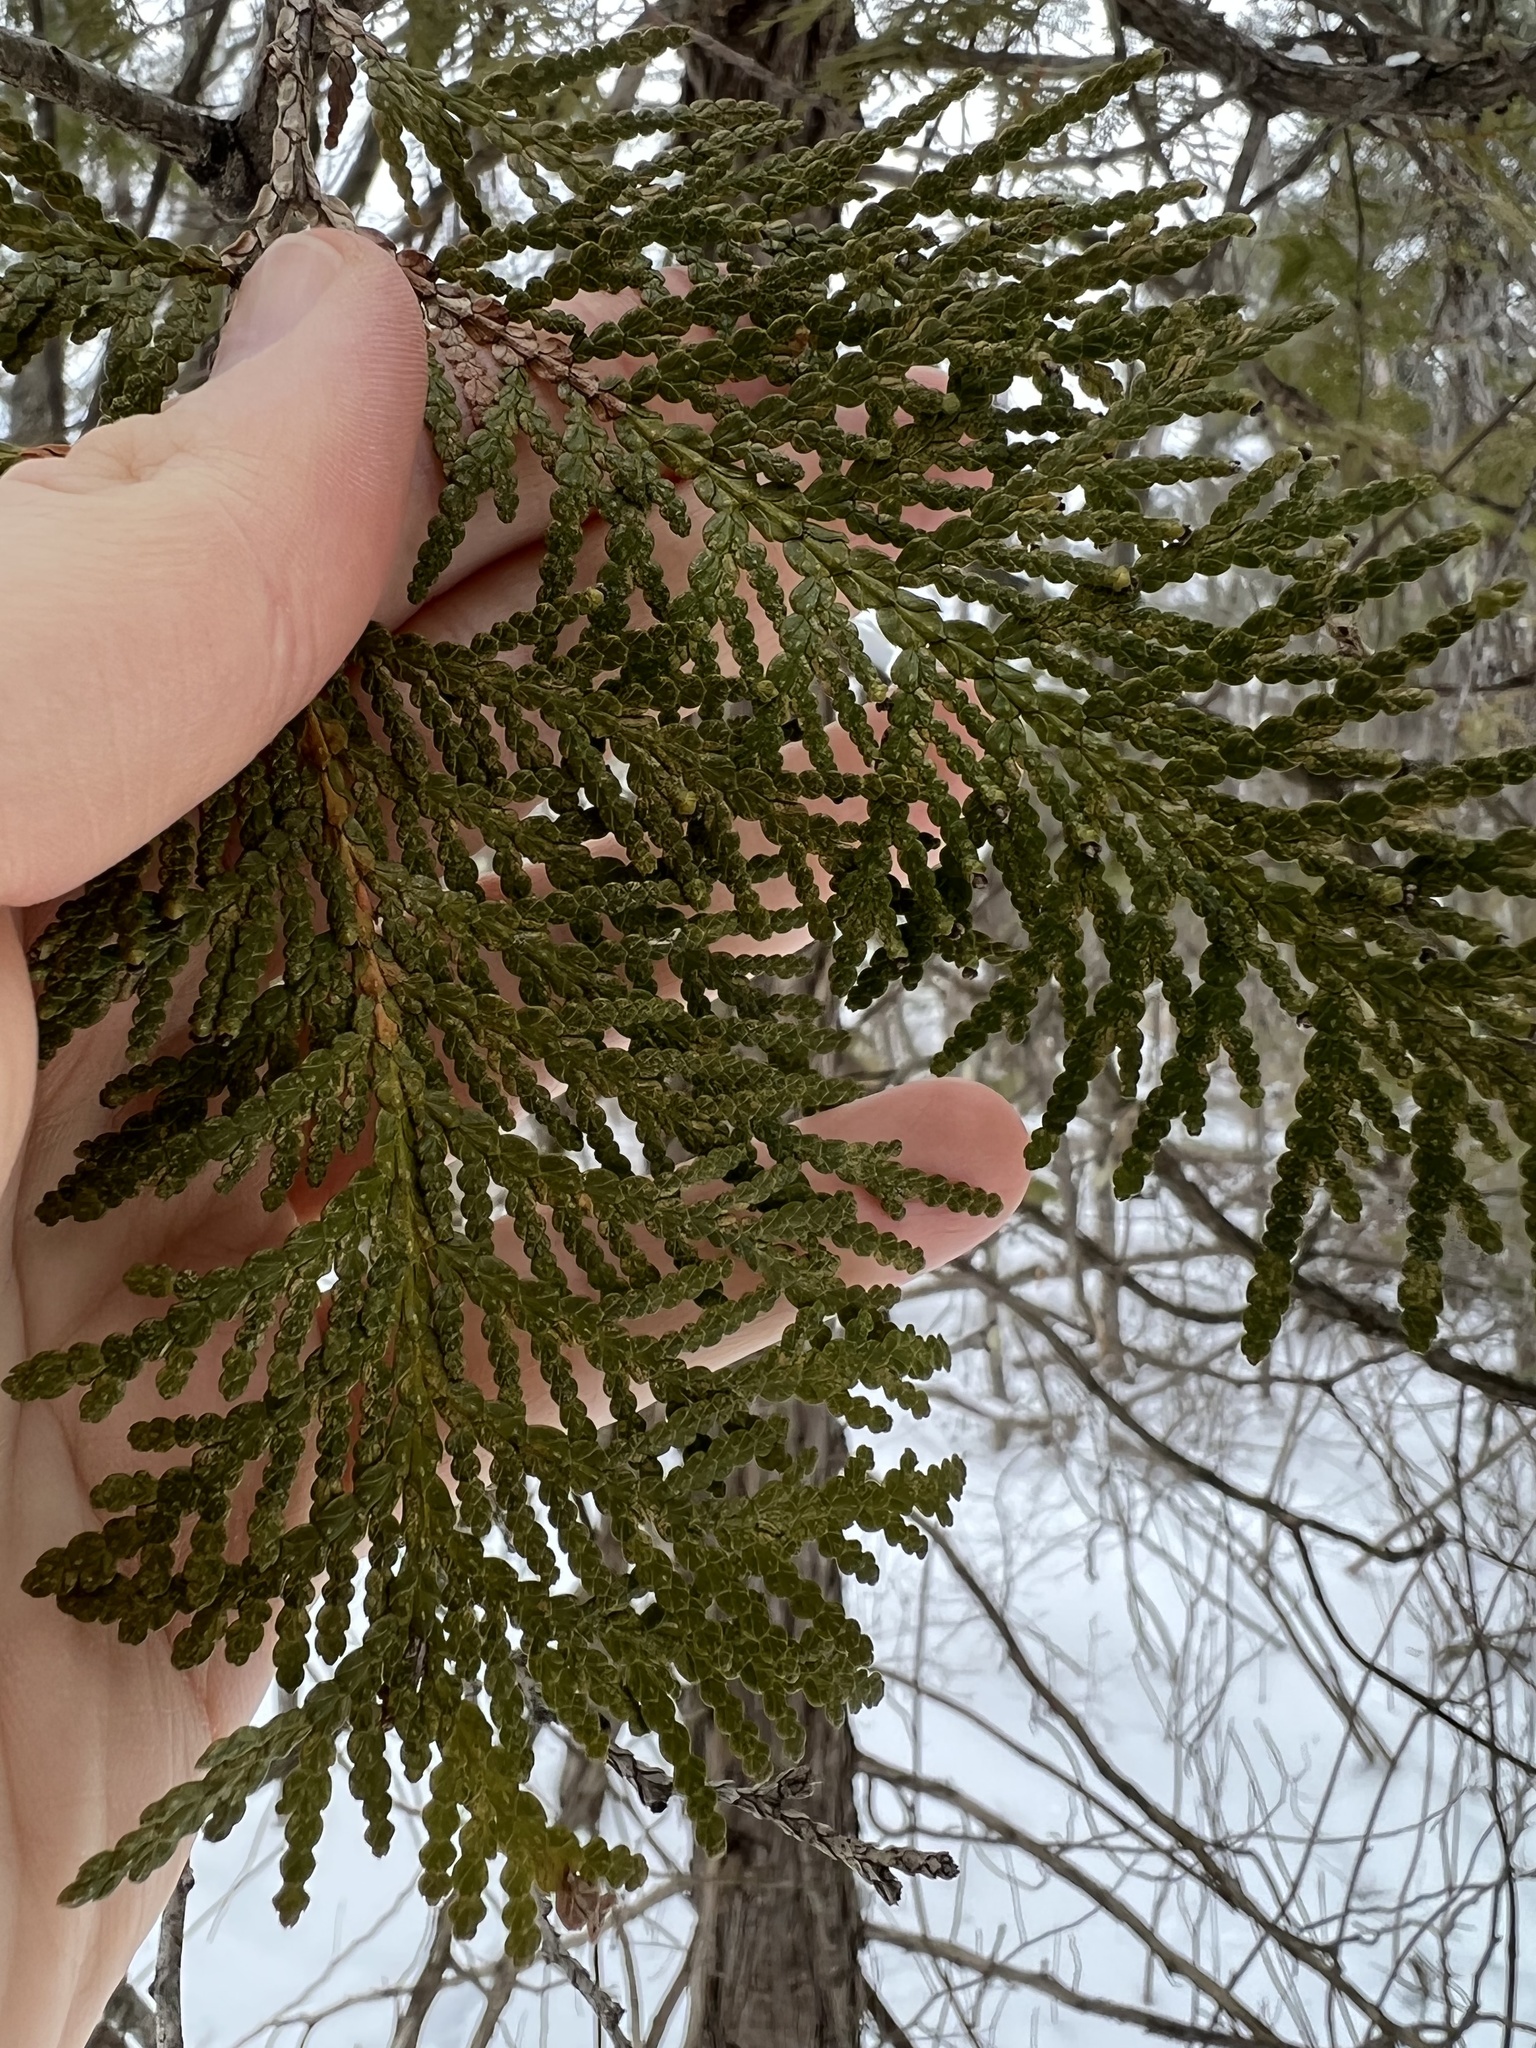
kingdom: Plantae
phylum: Tracheophyta
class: Pinopsida
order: Pinales
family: Cupressaceae
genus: Thuja
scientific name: Thuja occidentalis
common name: Northern white-cedar
